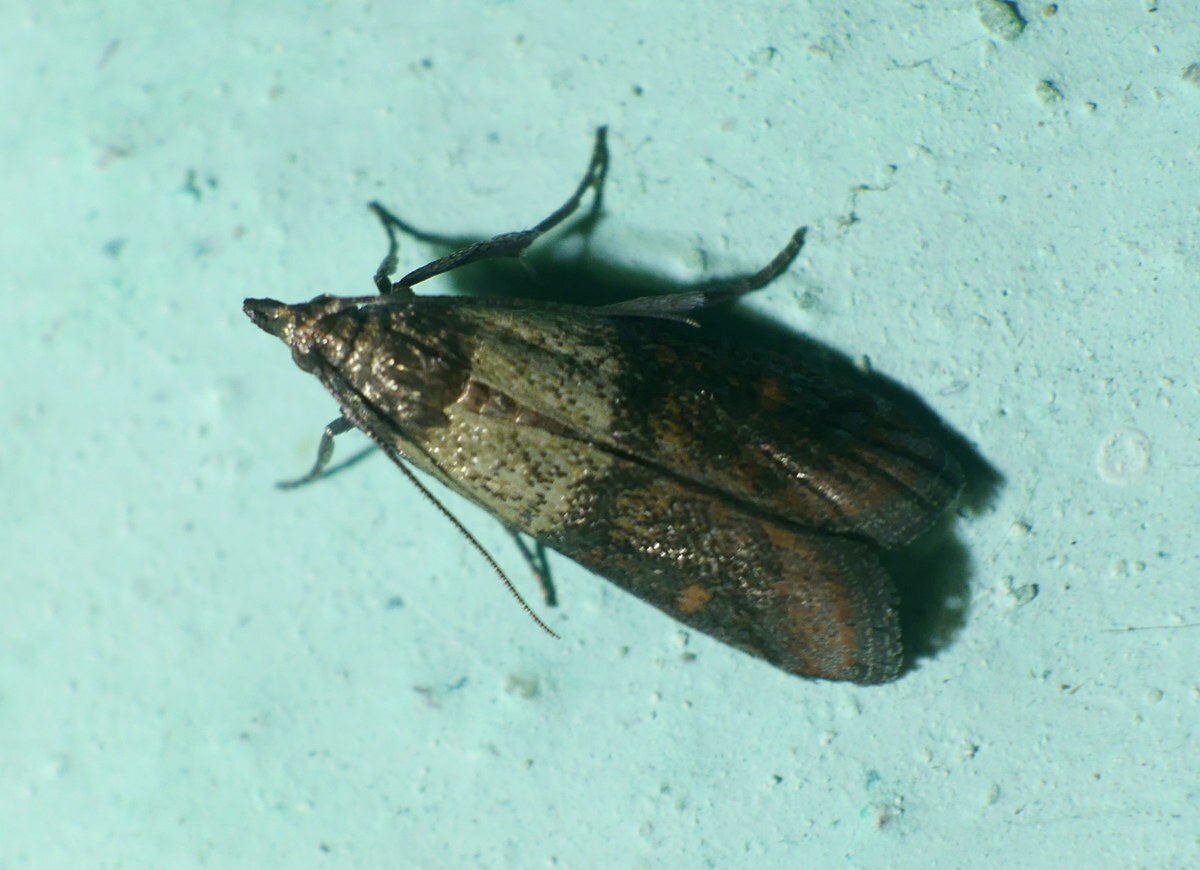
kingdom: Animalia
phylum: Arthropoda
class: Insecta
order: Lepidoptera
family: Pyralidae
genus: Plodia
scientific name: Plodia interpunctella
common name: Indian meal moth
